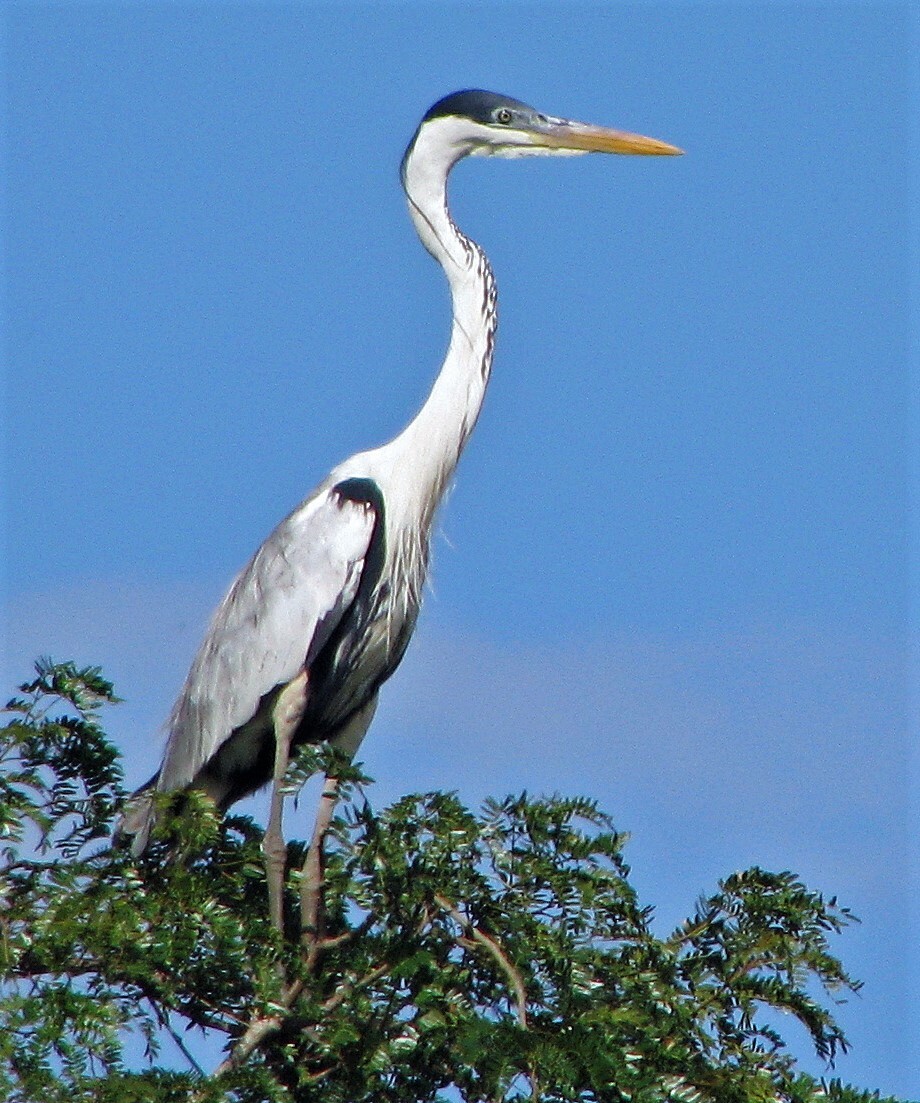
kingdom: Animalia
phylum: Chordata
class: Aves
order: Pelecaniformes
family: Ardeidae
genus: Ardea
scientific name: Ardea cocoi
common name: Cocoi heron
